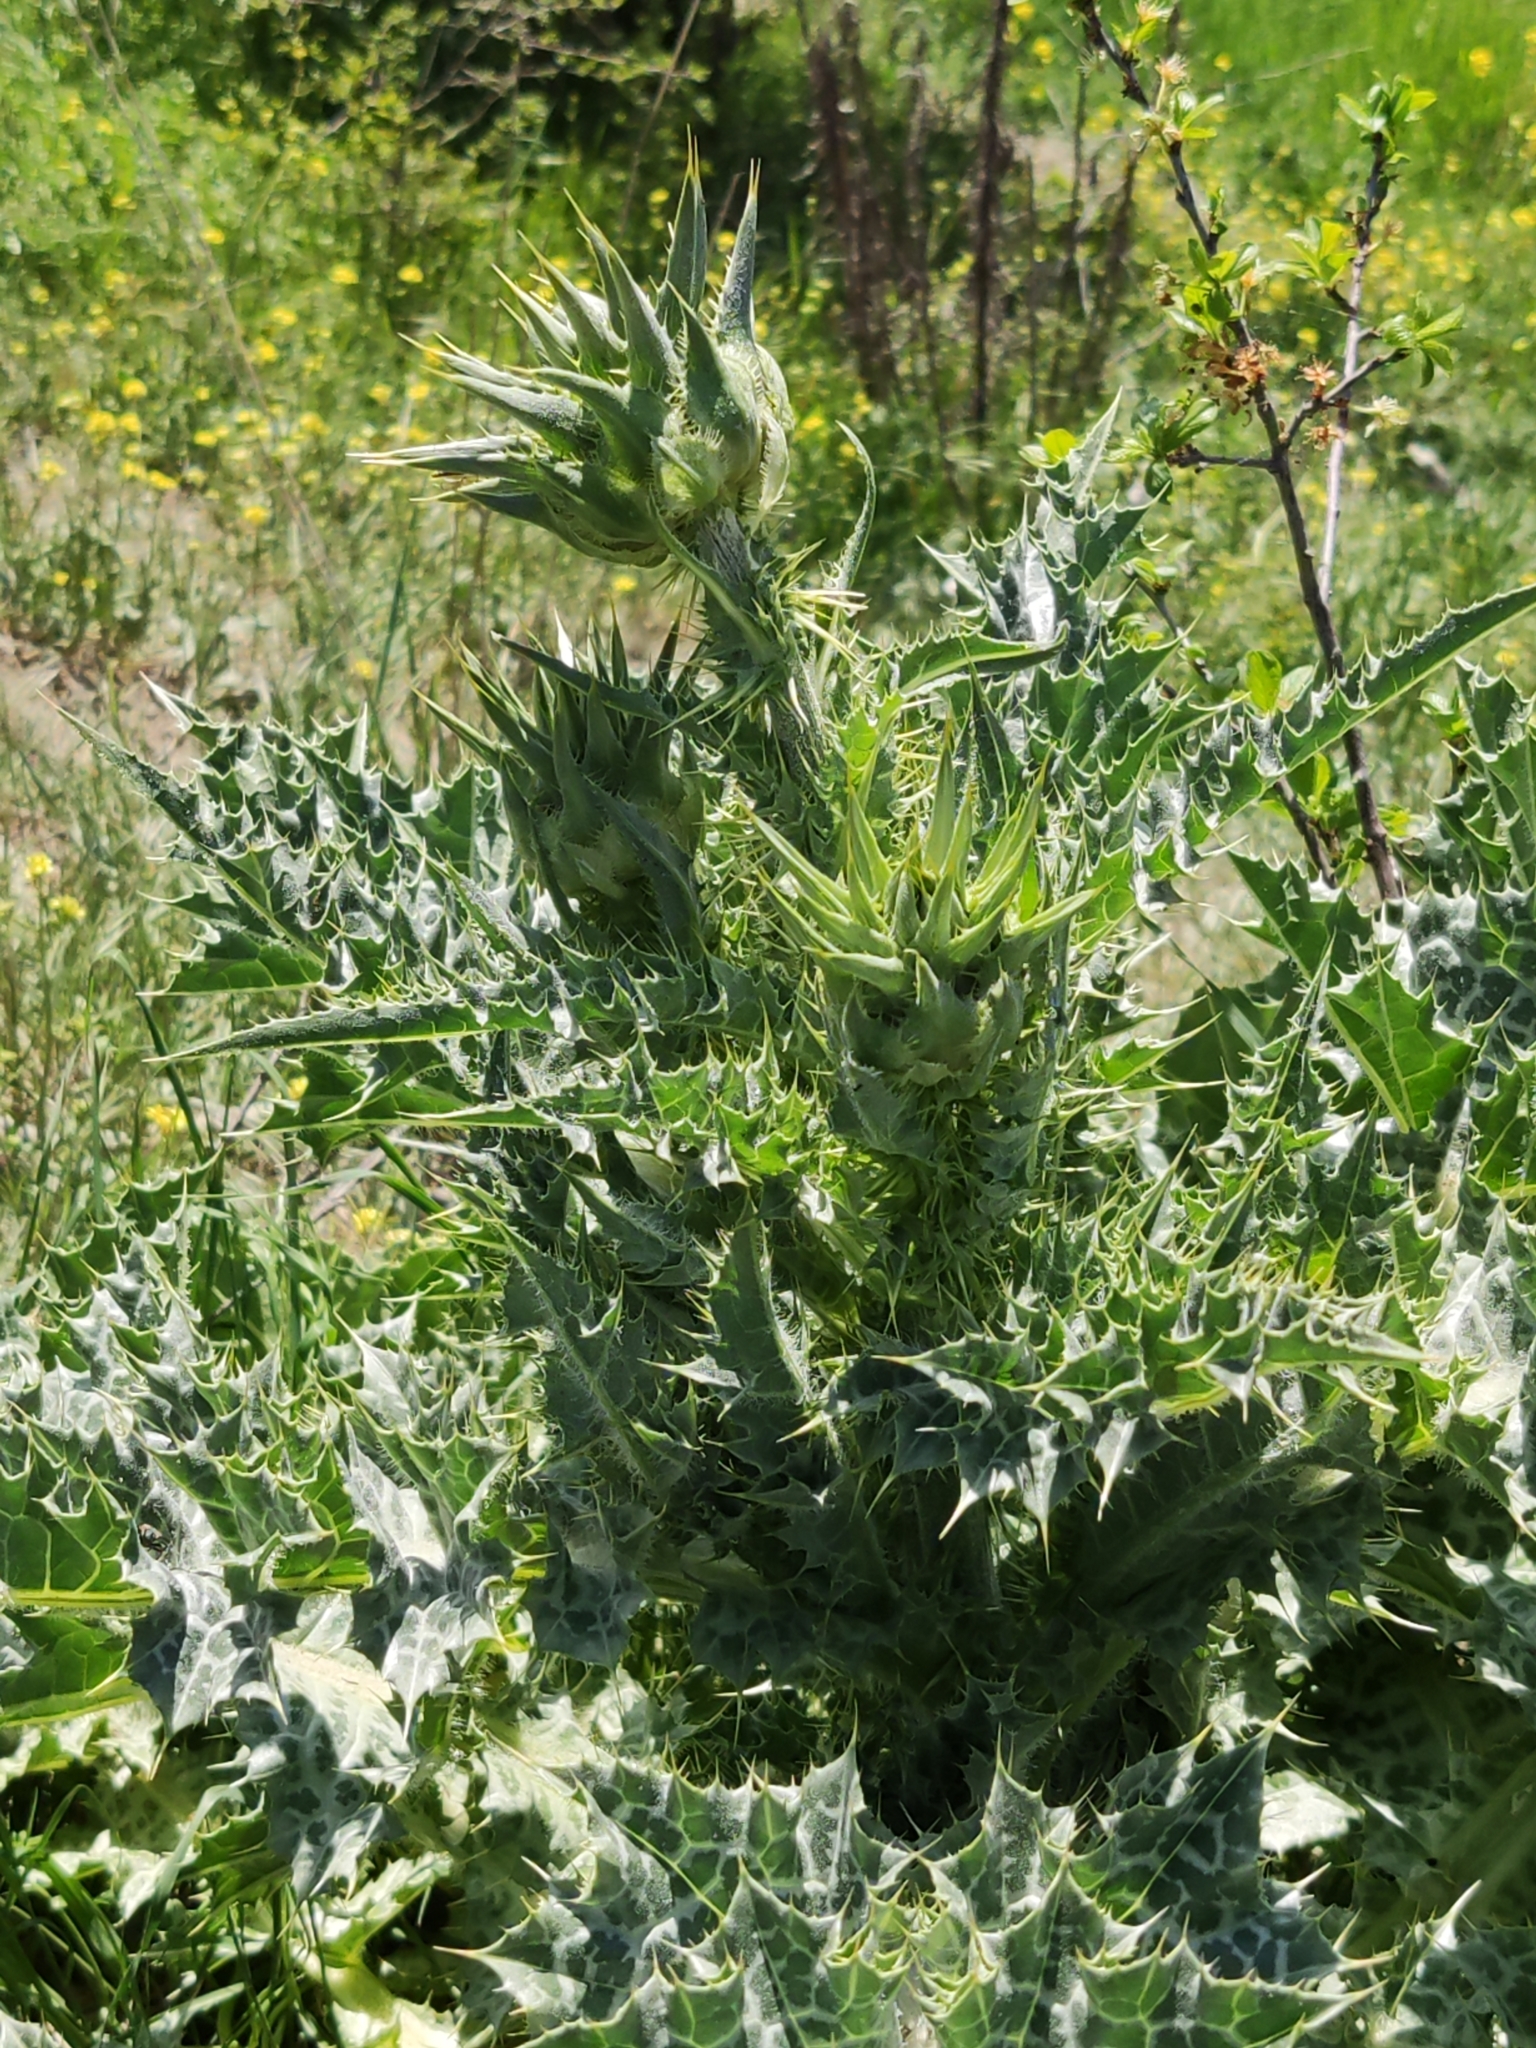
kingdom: Plantae
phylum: Tracheophyta
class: Magnoliopsida
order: Asterales
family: Asteraceae
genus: Silybum
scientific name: Silybum marianum
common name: Milk thistle
